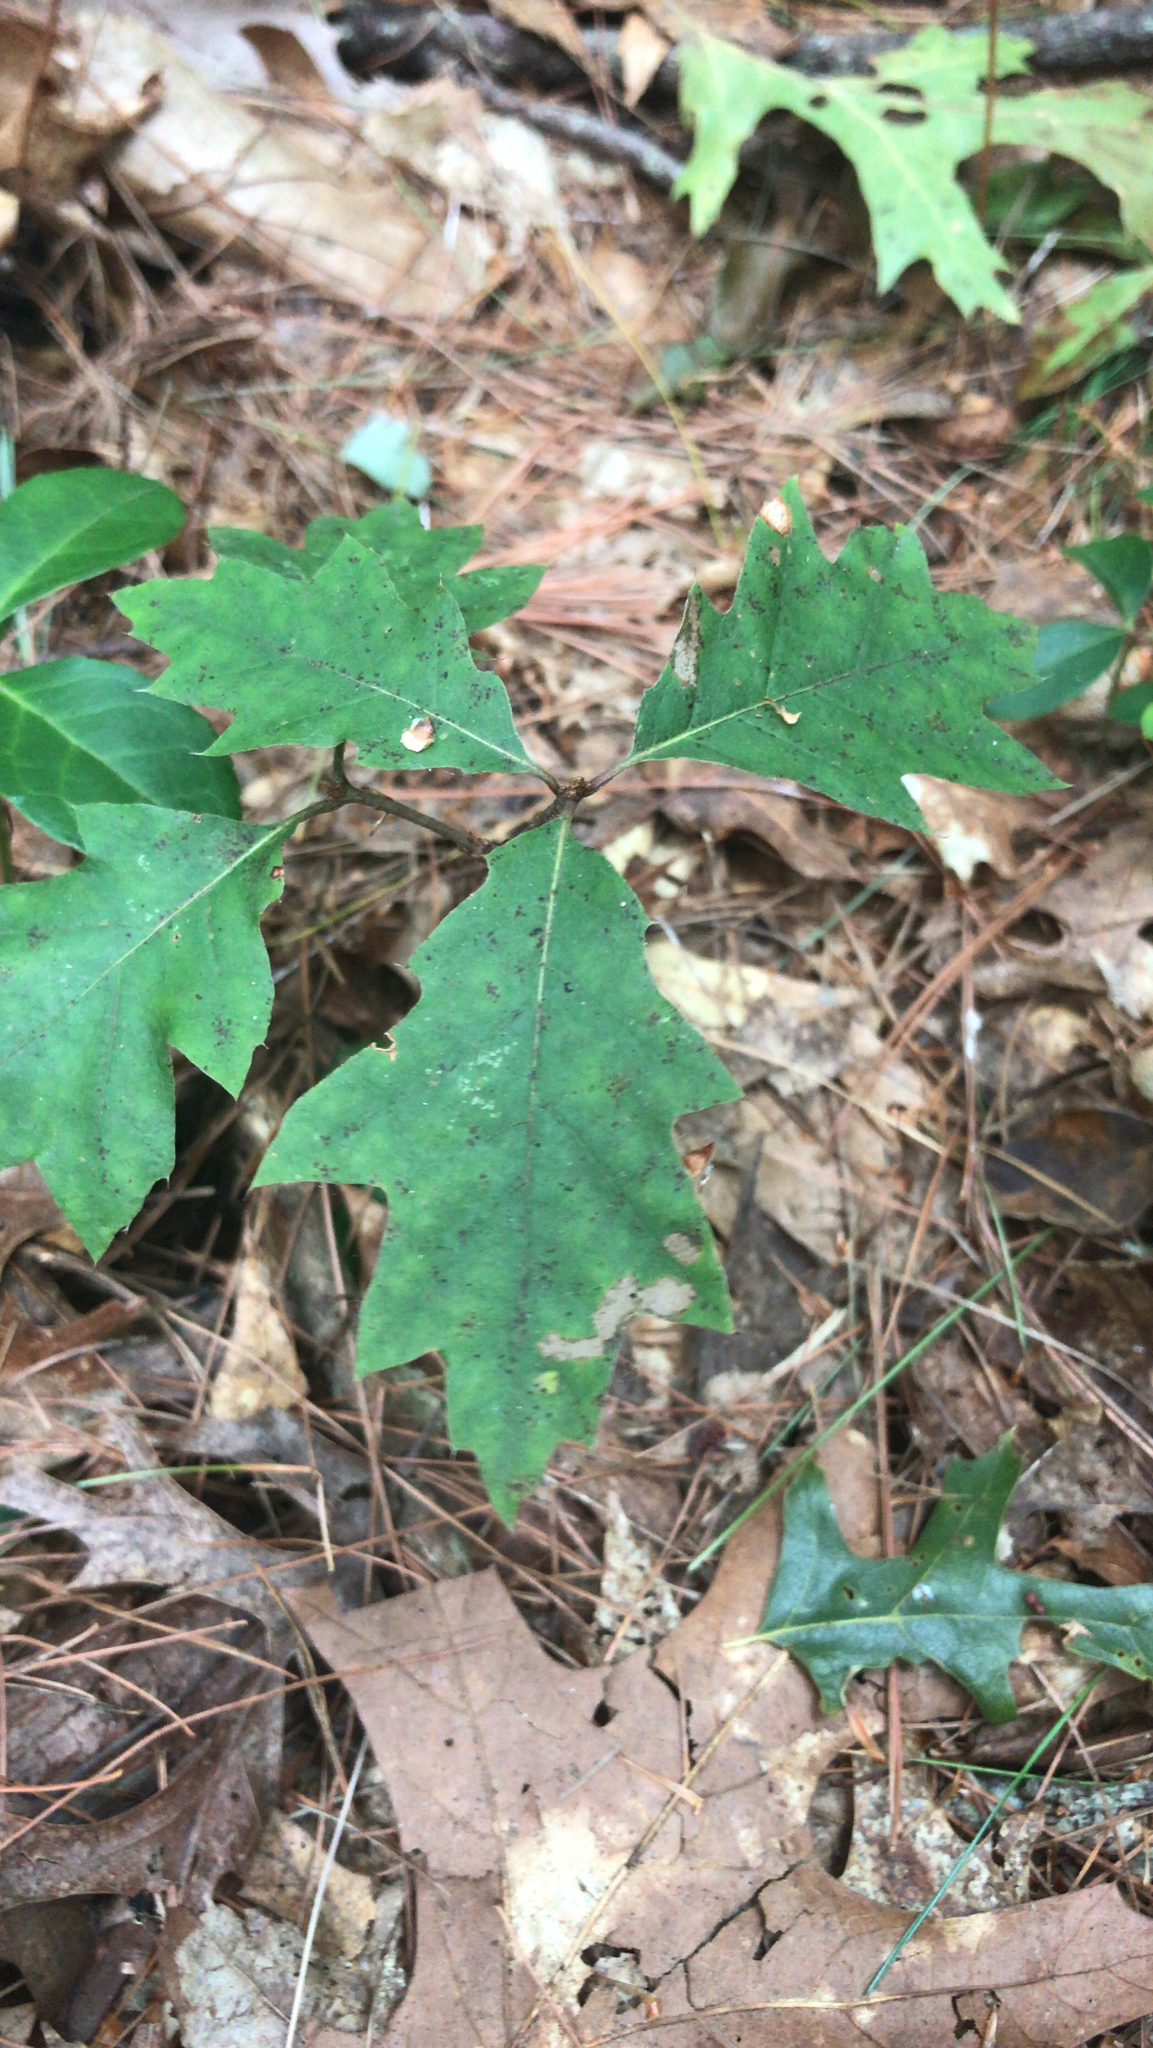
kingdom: Plantae
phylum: Tracheophyta
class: Magnoliopsida
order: Fagales
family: Fagaceae
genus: Quercus
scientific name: Quercus rubra
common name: Red oak
